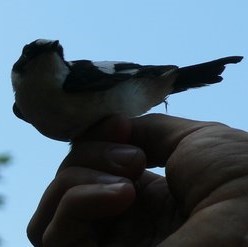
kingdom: Animalia
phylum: Chordata
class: Aves
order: Passeriformes
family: Muscicapidae
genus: Ficedula
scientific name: Ficedula albicollis
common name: Collared flycatcher
